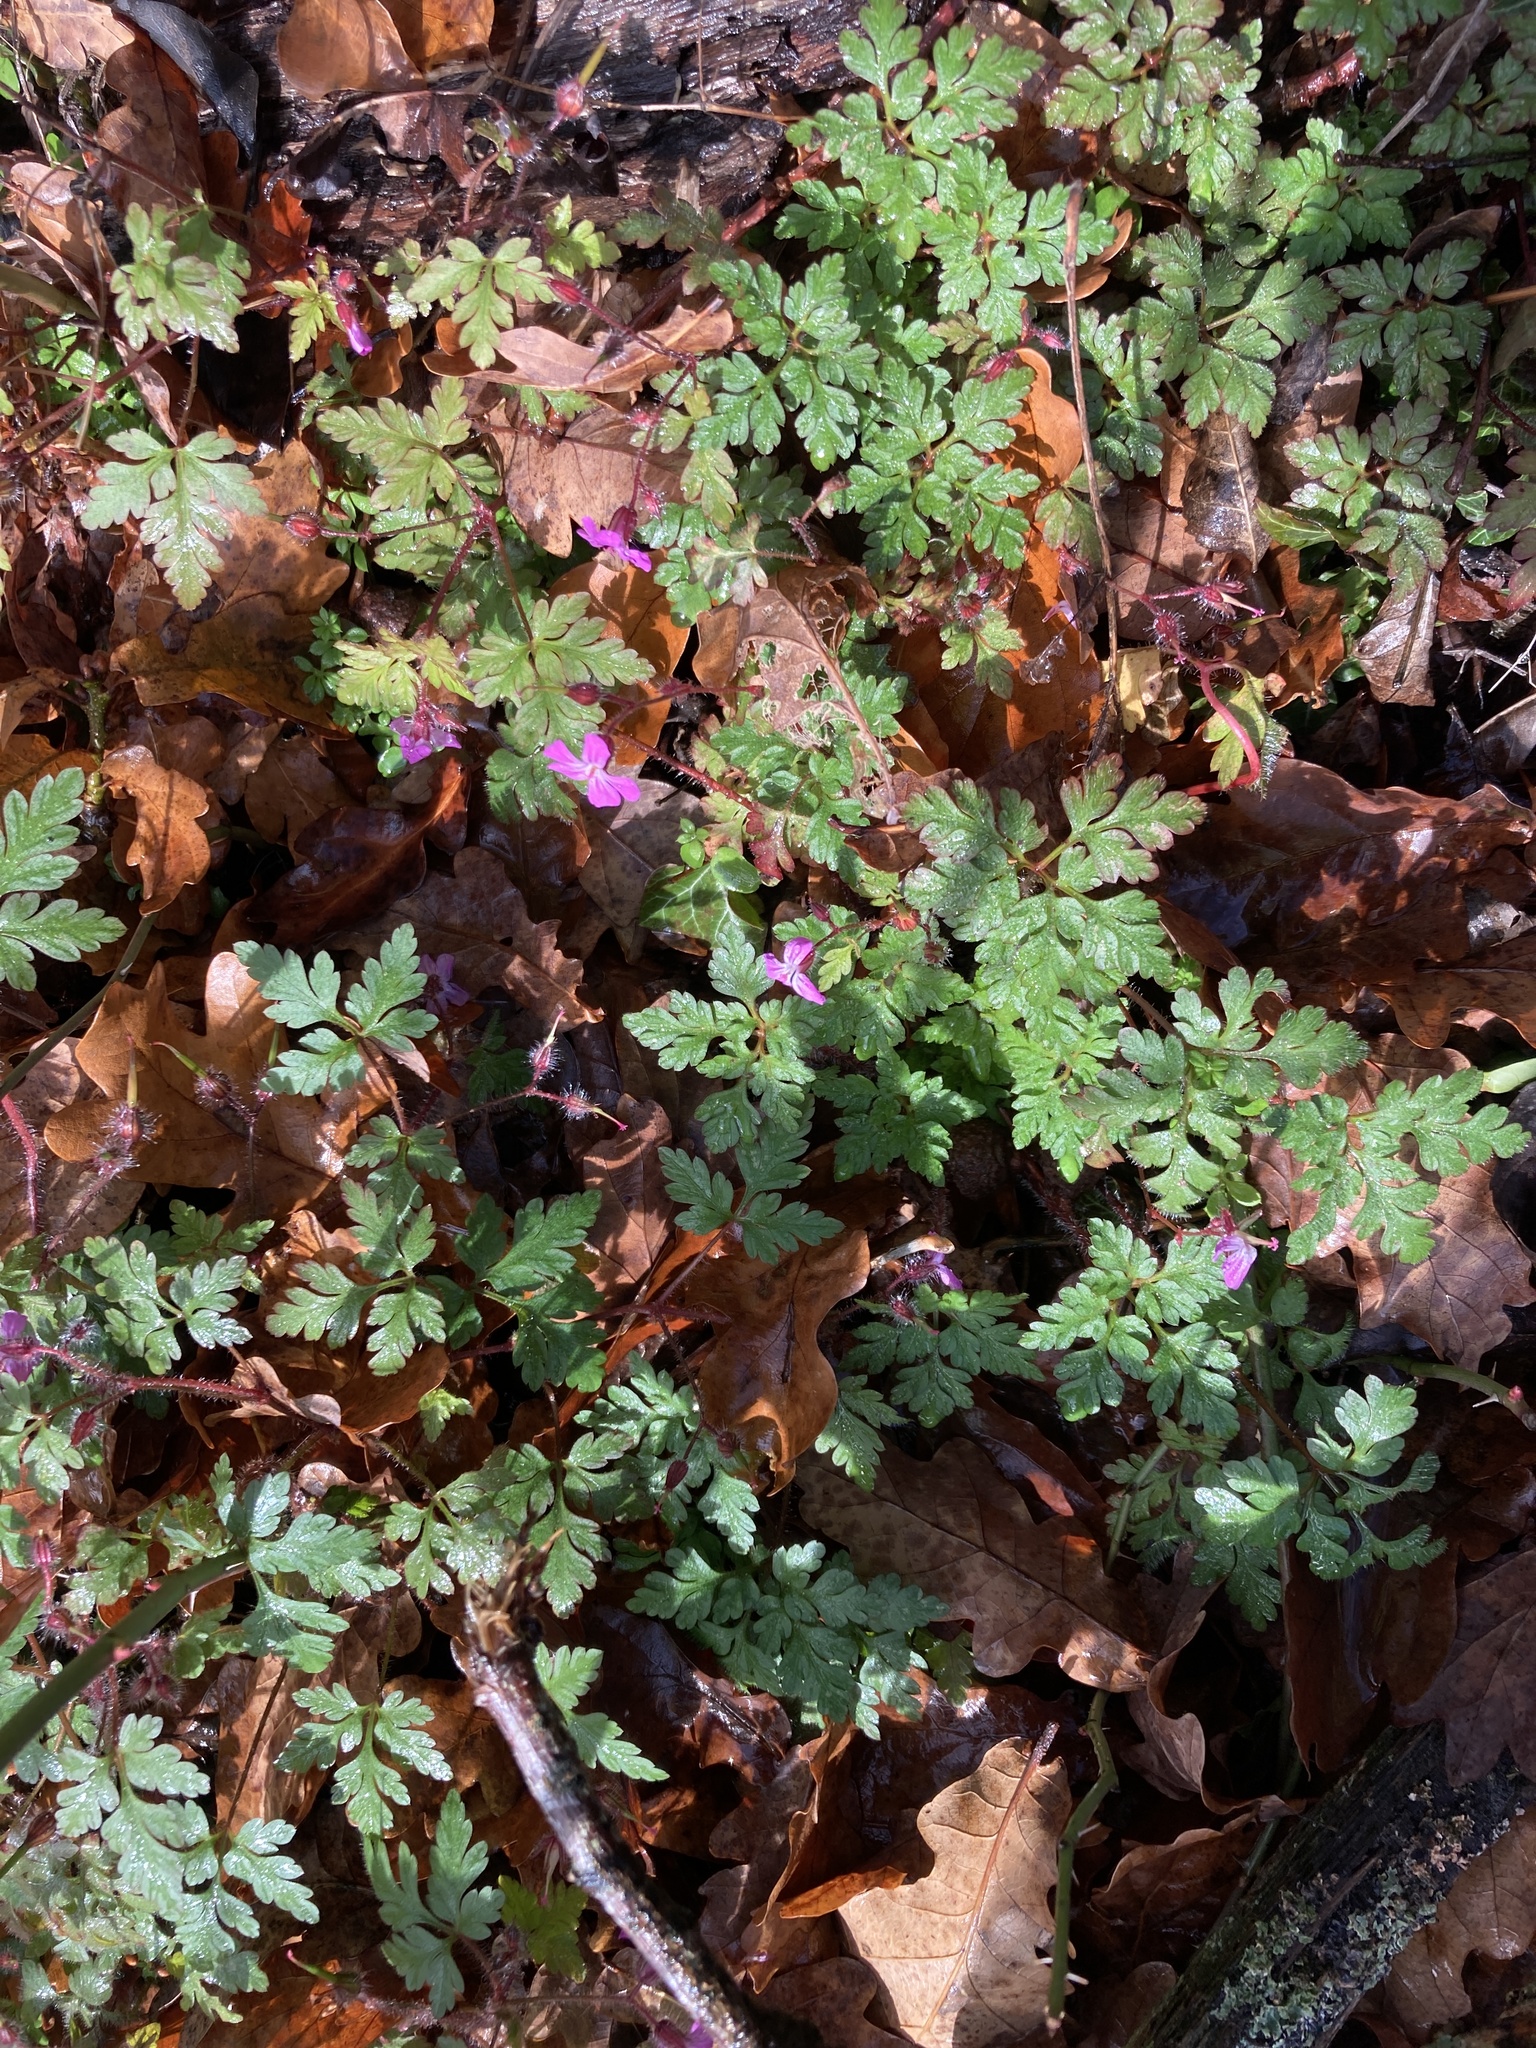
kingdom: Plantae
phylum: Tracheophyta
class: Magnoliopsida
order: Geraniales
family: Geraniaceae
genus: Geranium
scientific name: Geranium robertianum
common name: Herb-robert
